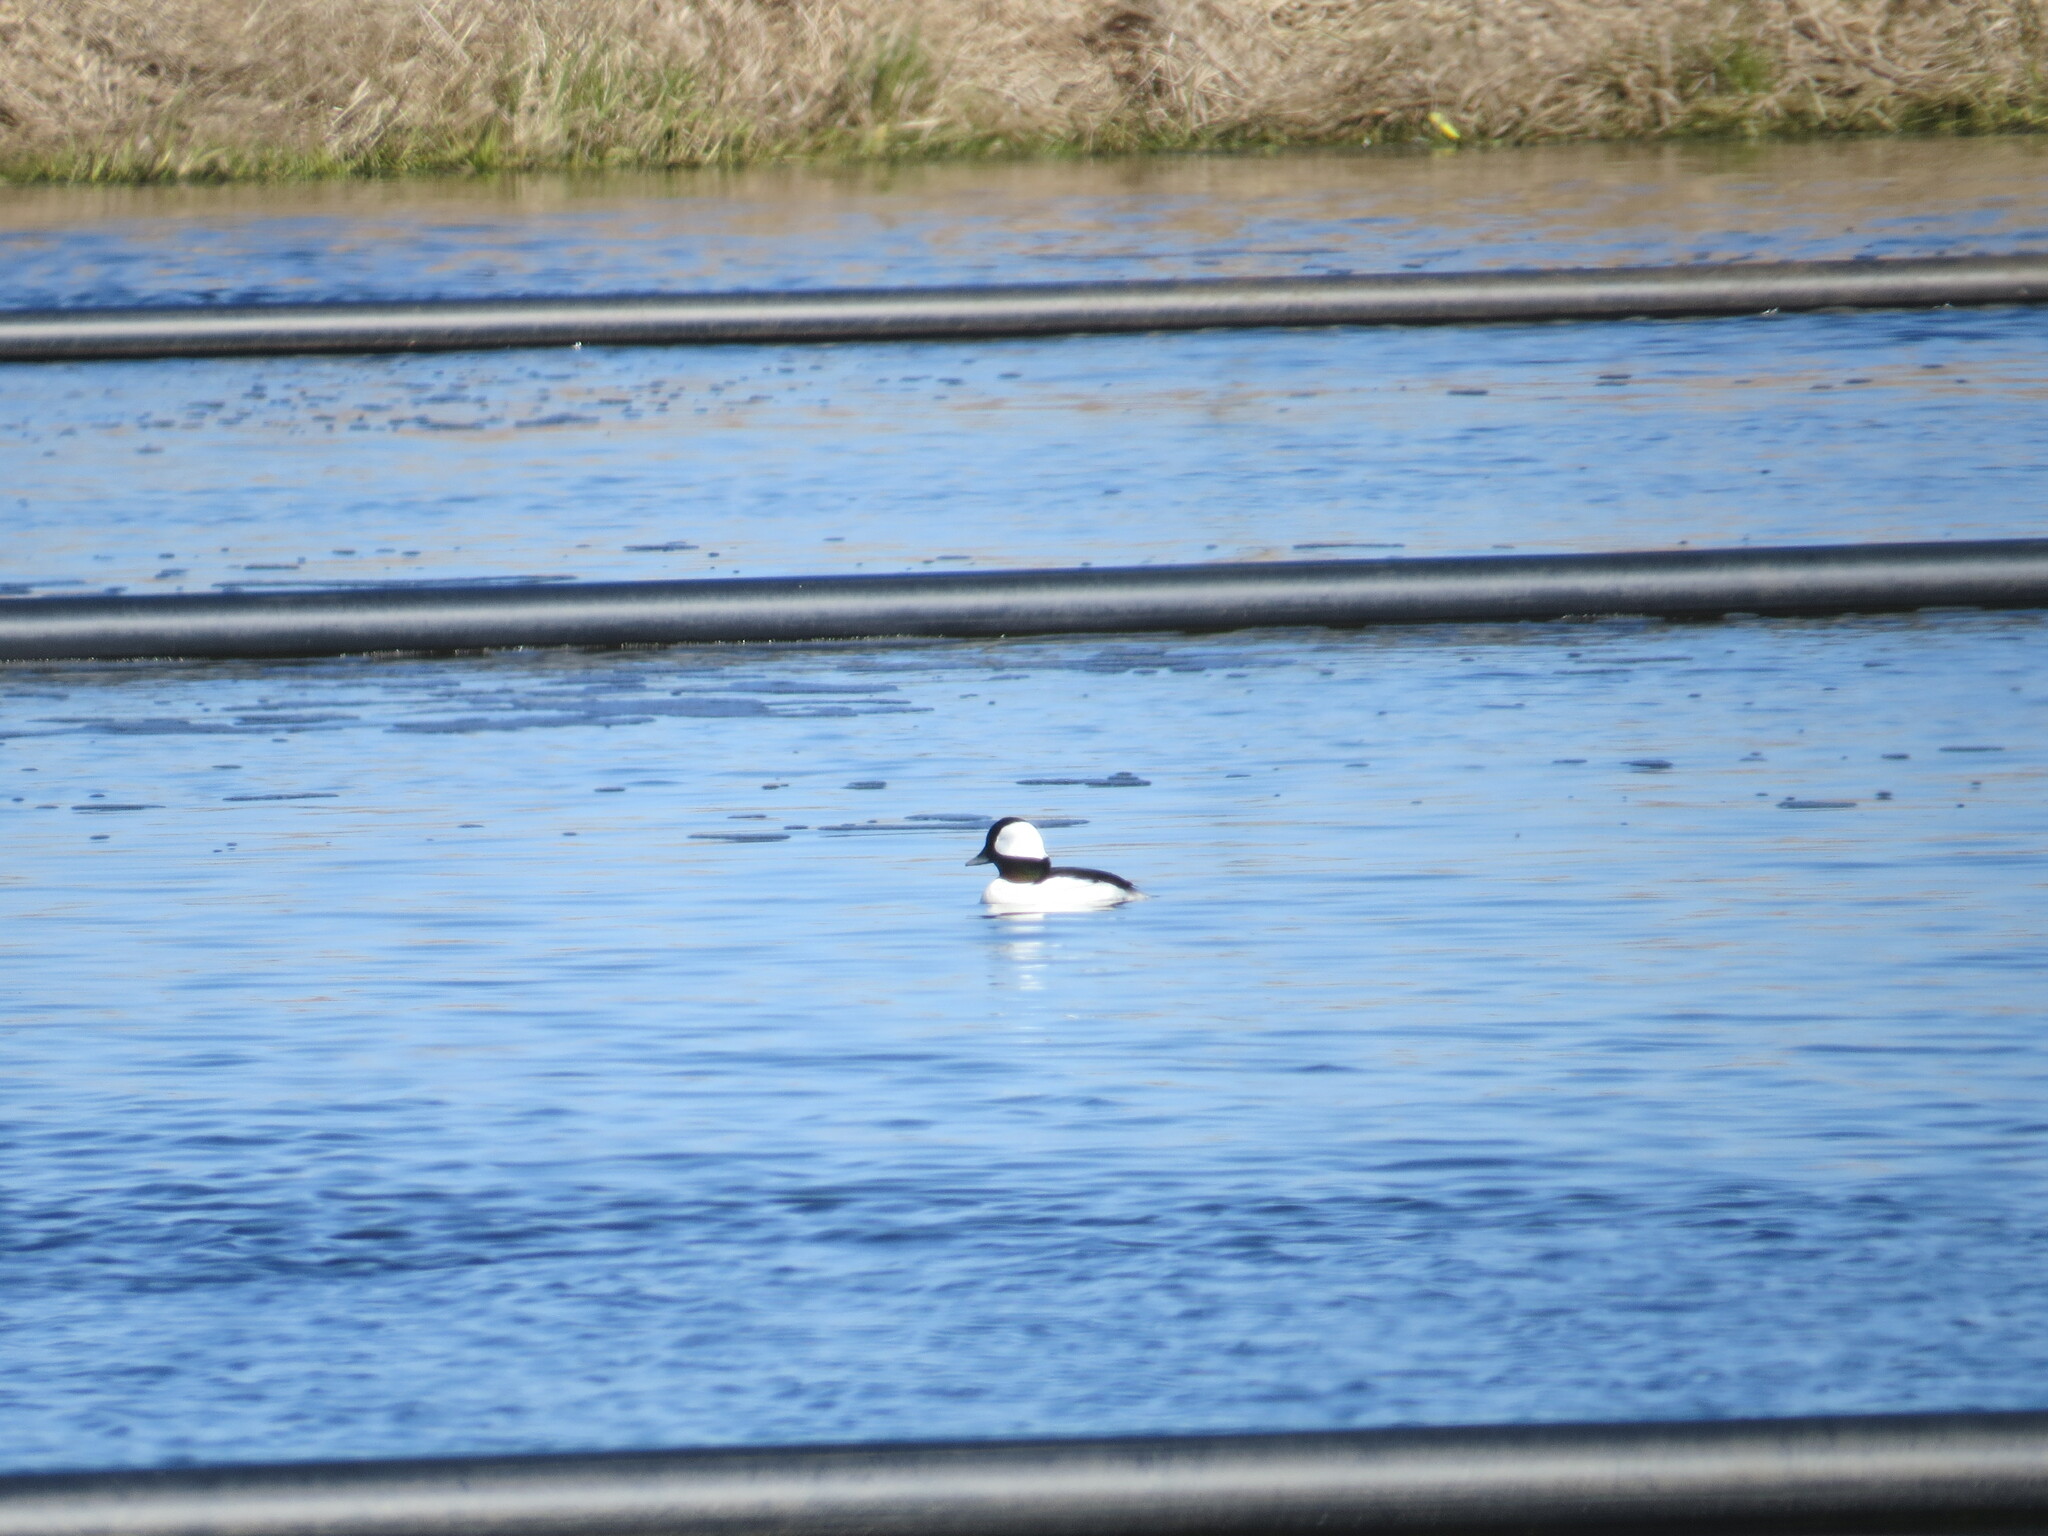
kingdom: Animalia
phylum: Chordata
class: Aves
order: Anseriformes
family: Anatidae
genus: Bucephala
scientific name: Bucephala albeola
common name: Bufflehead
